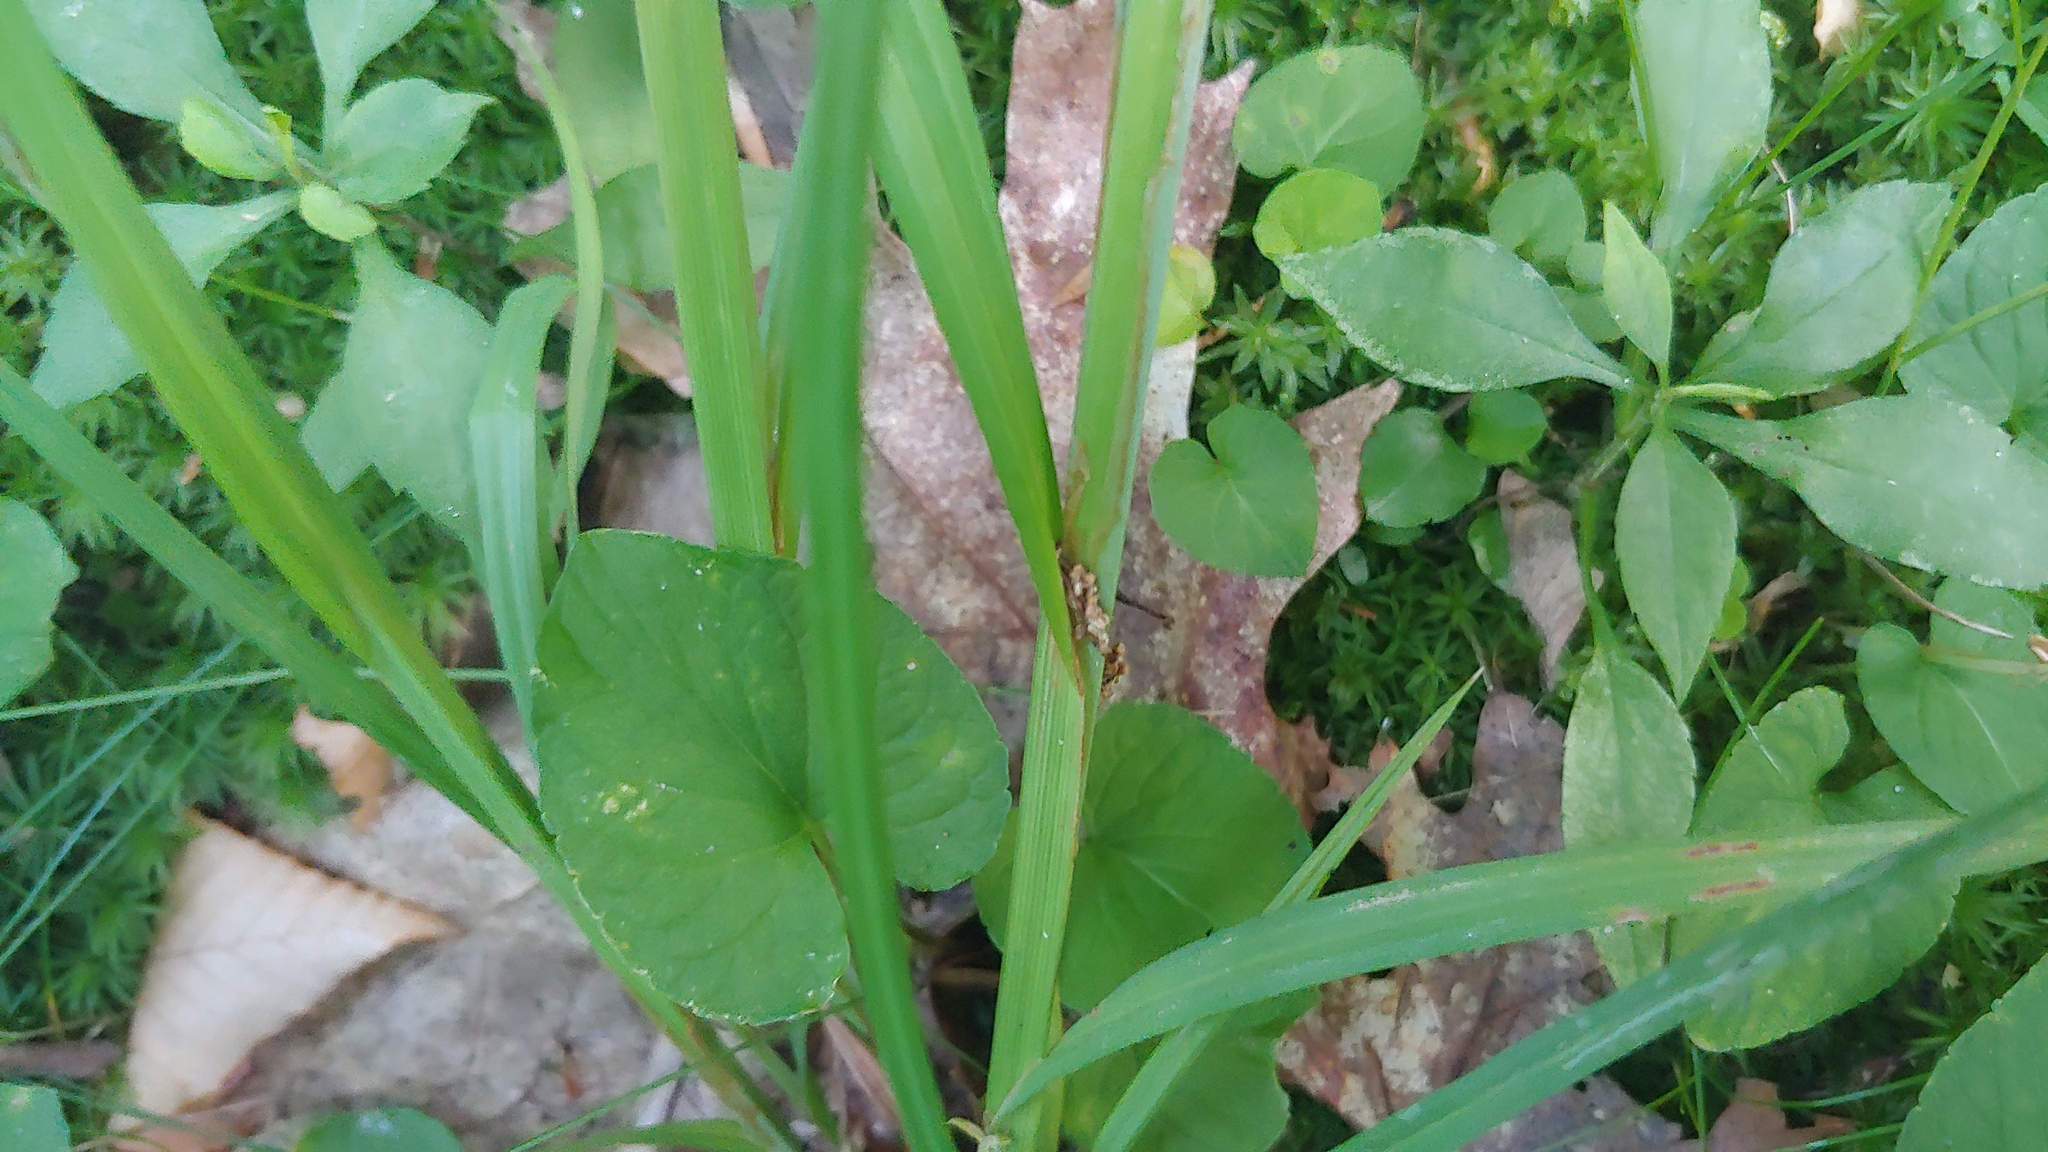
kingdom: Plantae
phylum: Tracheophyta
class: Liliopsida
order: Poales
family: Cyperaceae
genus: Carex
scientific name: Carex deweyana
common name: Dewey's sedge
